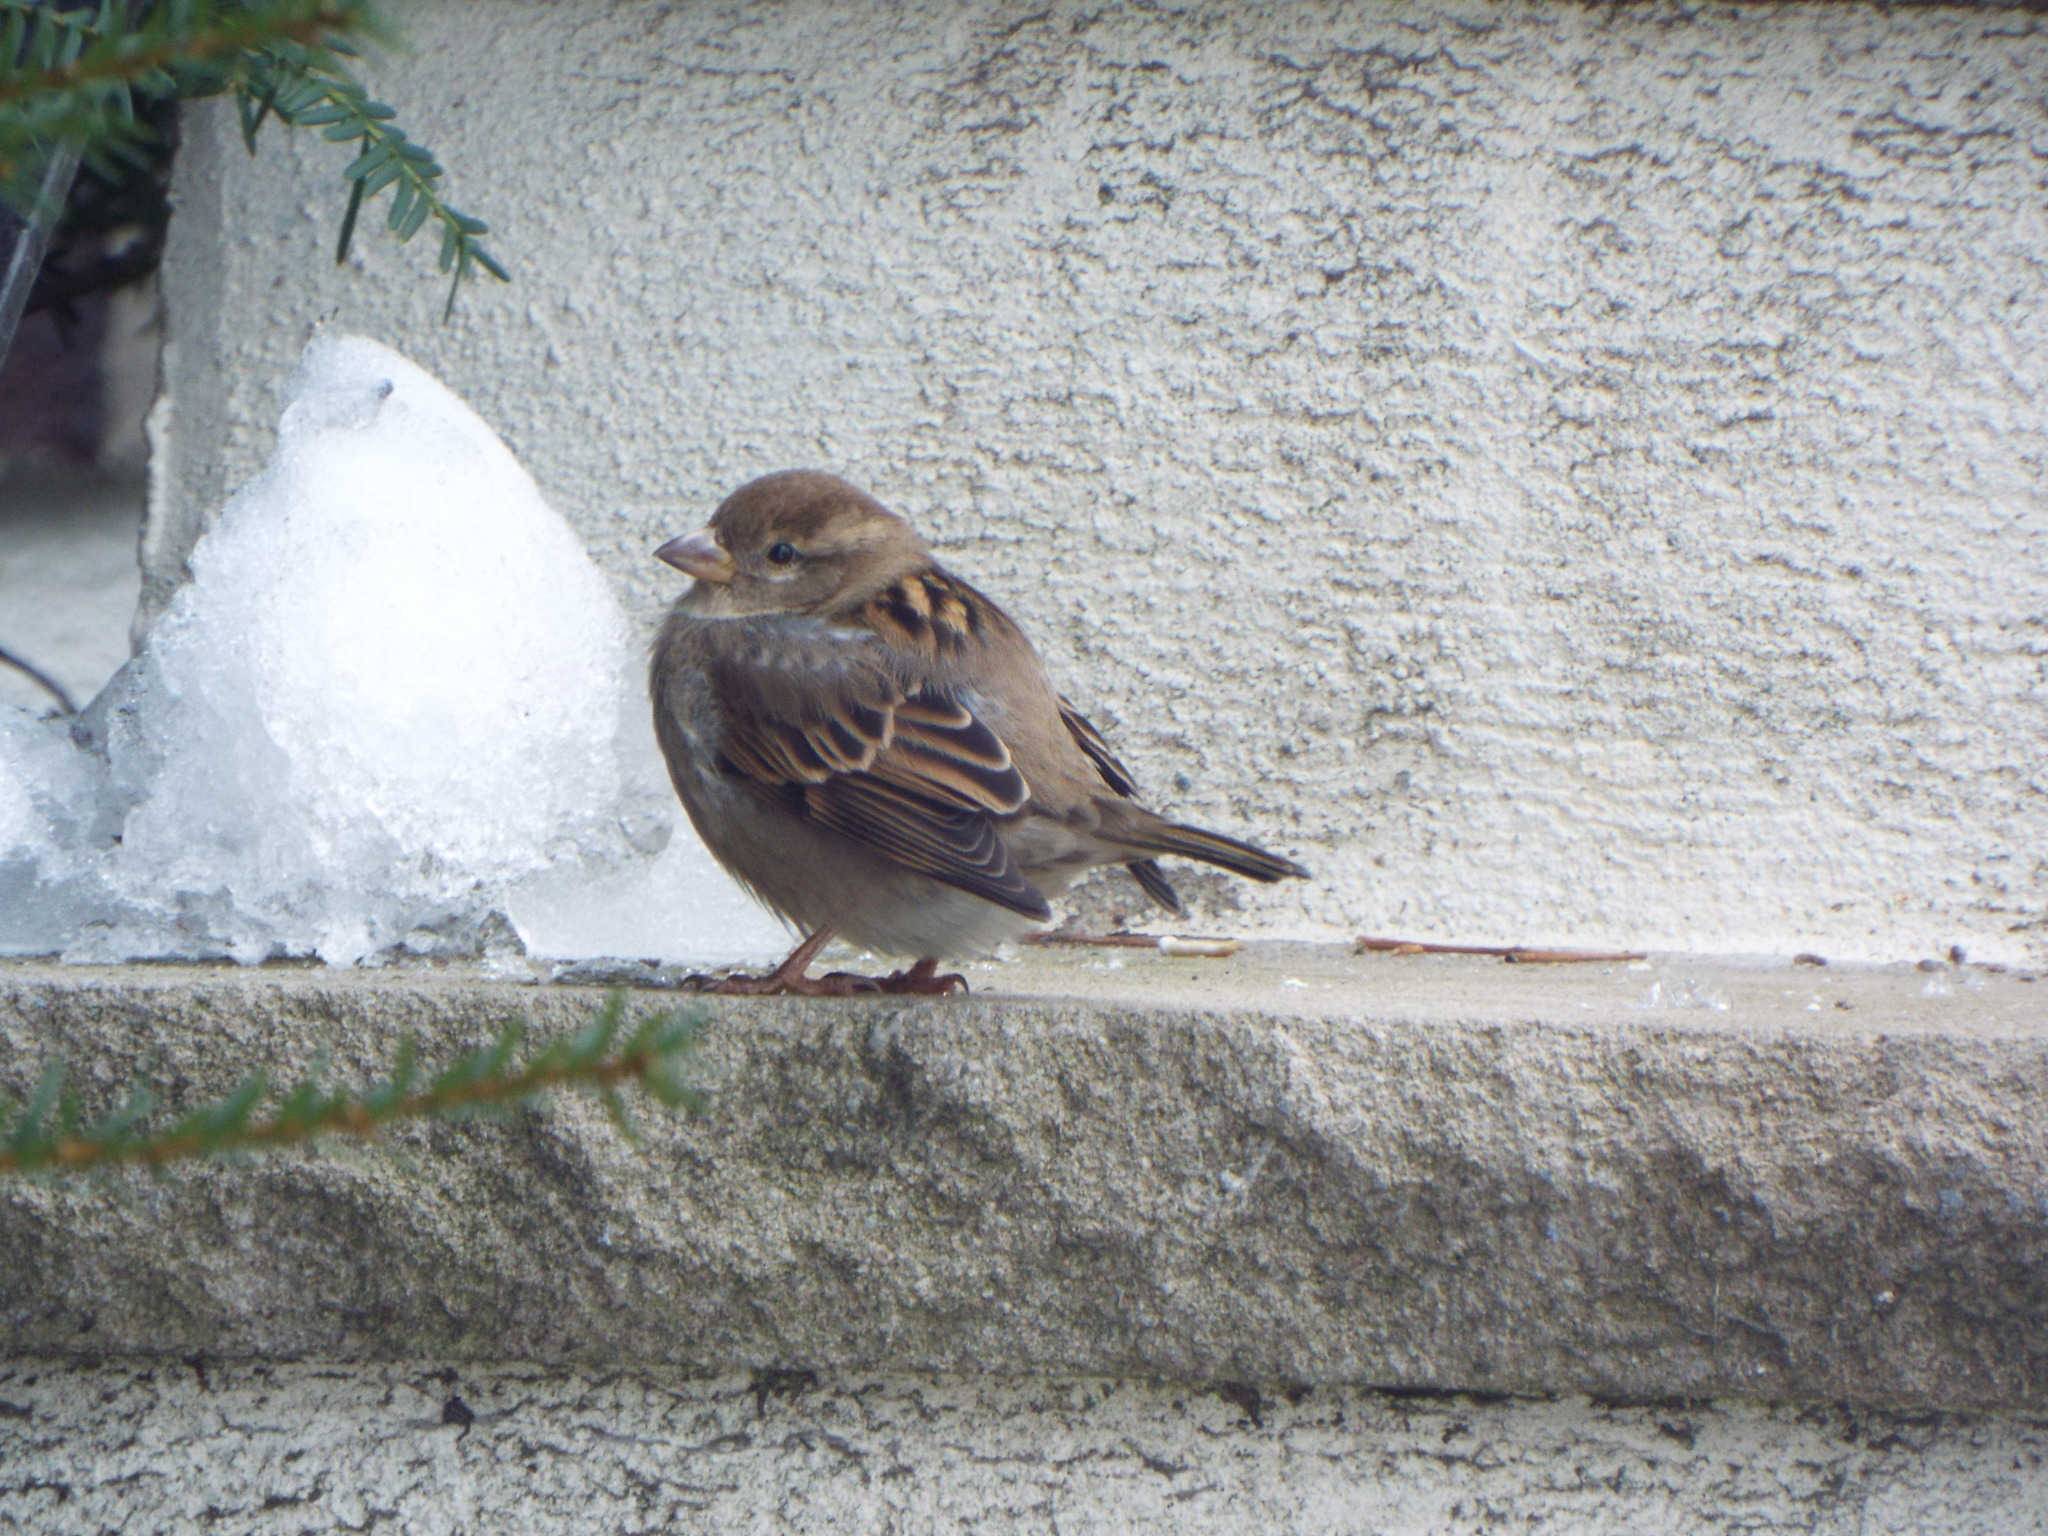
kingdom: Animalia
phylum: Chordata
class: Aves
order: Passeriformes
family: Passeridae
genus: Passer
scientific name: Passer domesticus
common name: House sparrow
